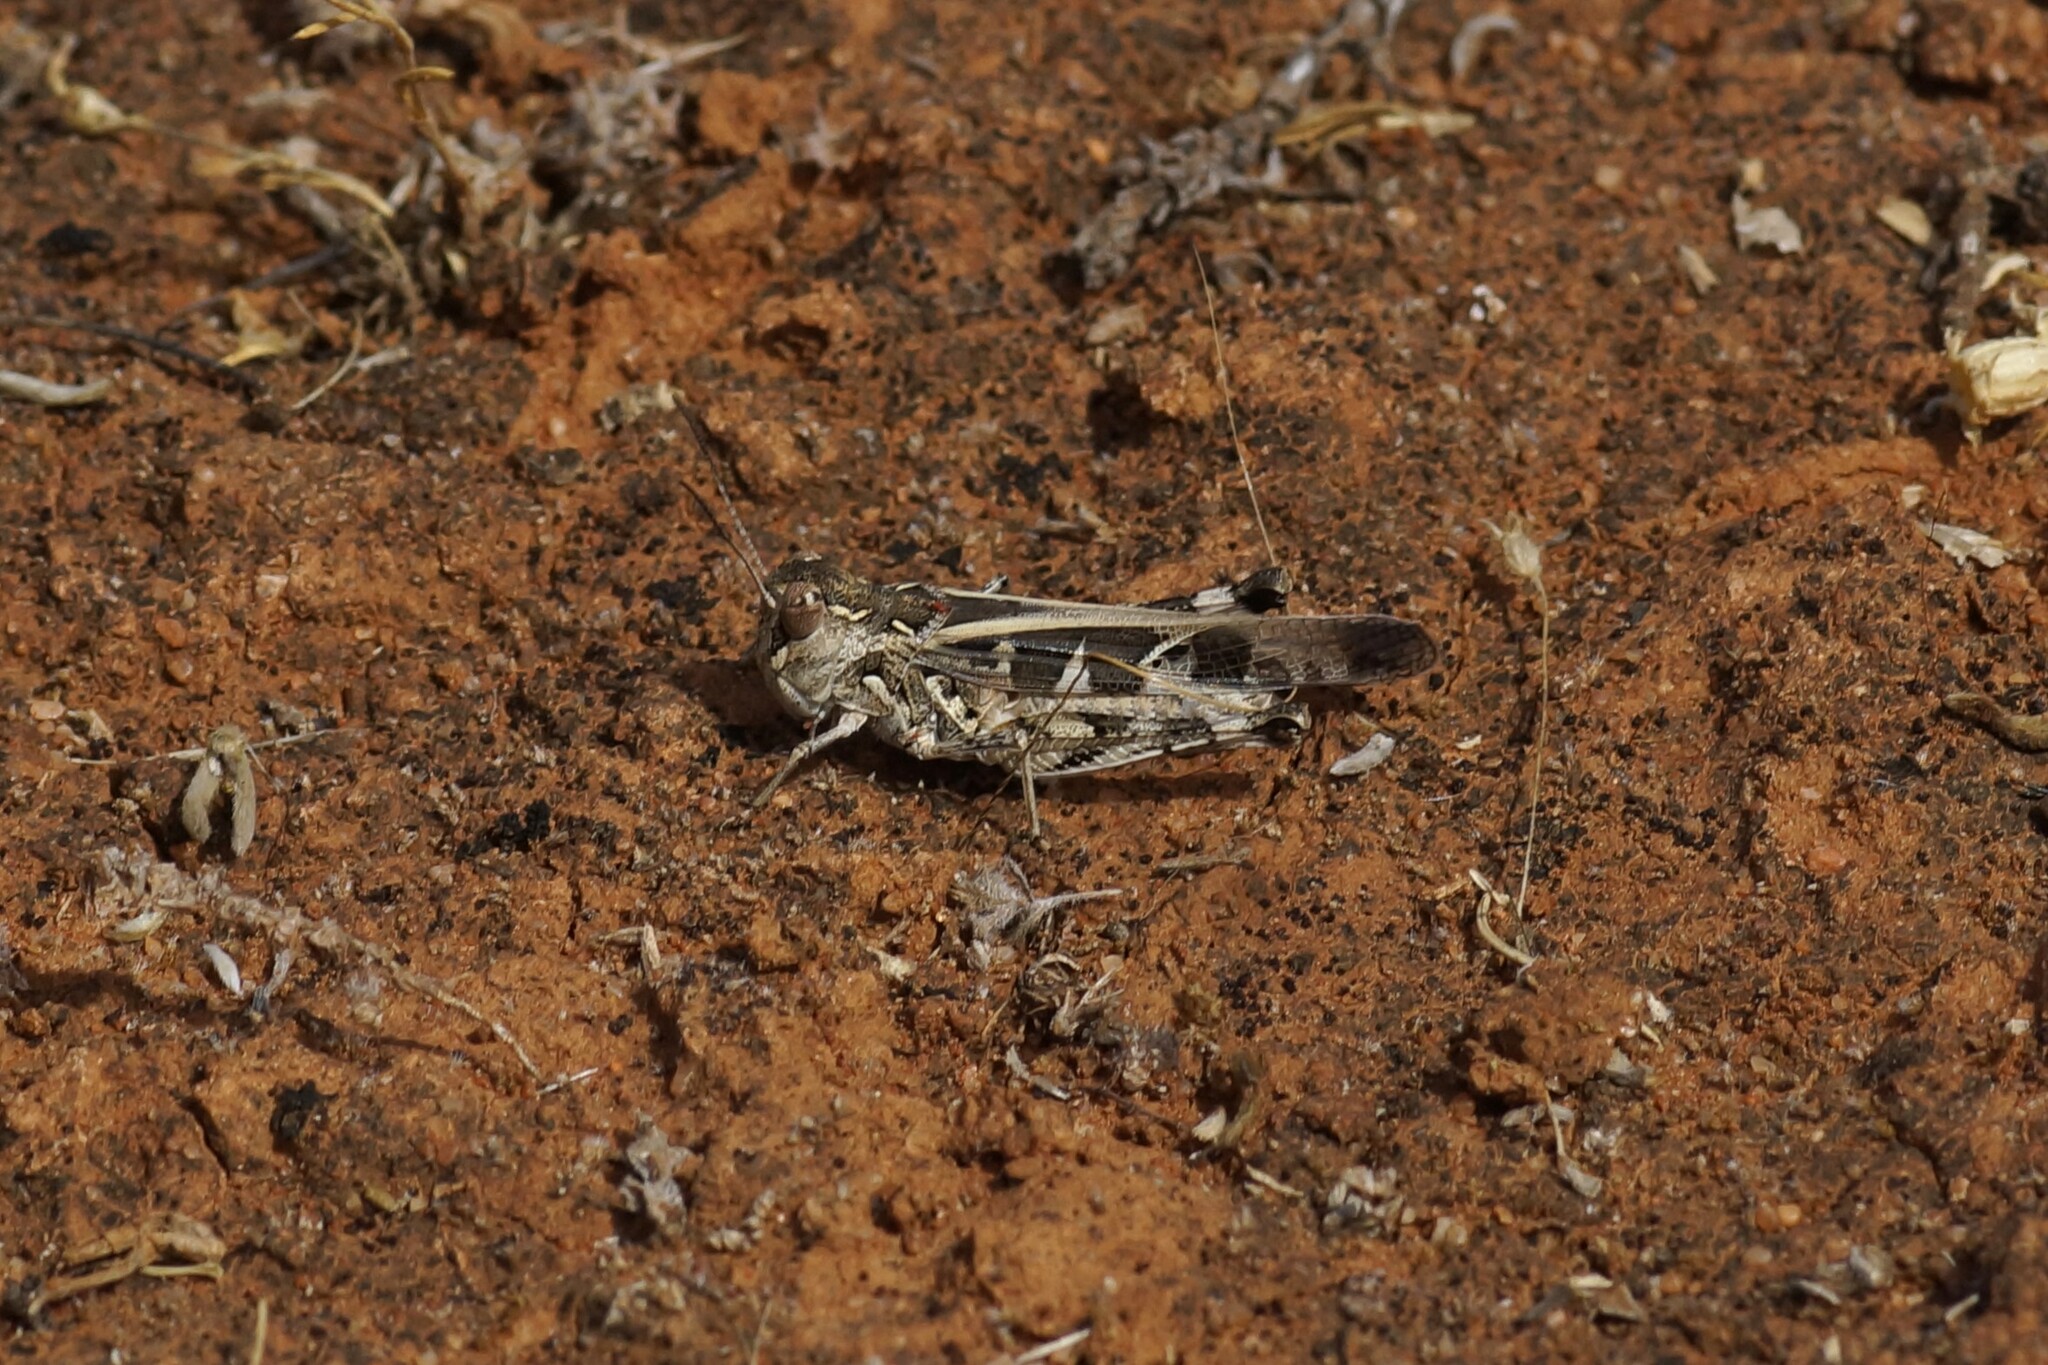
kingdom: Animalia
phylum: Arthropoda
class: Insecta
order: Orthoptera
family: Acrididae
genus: Oedaleus
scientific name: Oedaleus australis
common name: Eastern oedaleus
